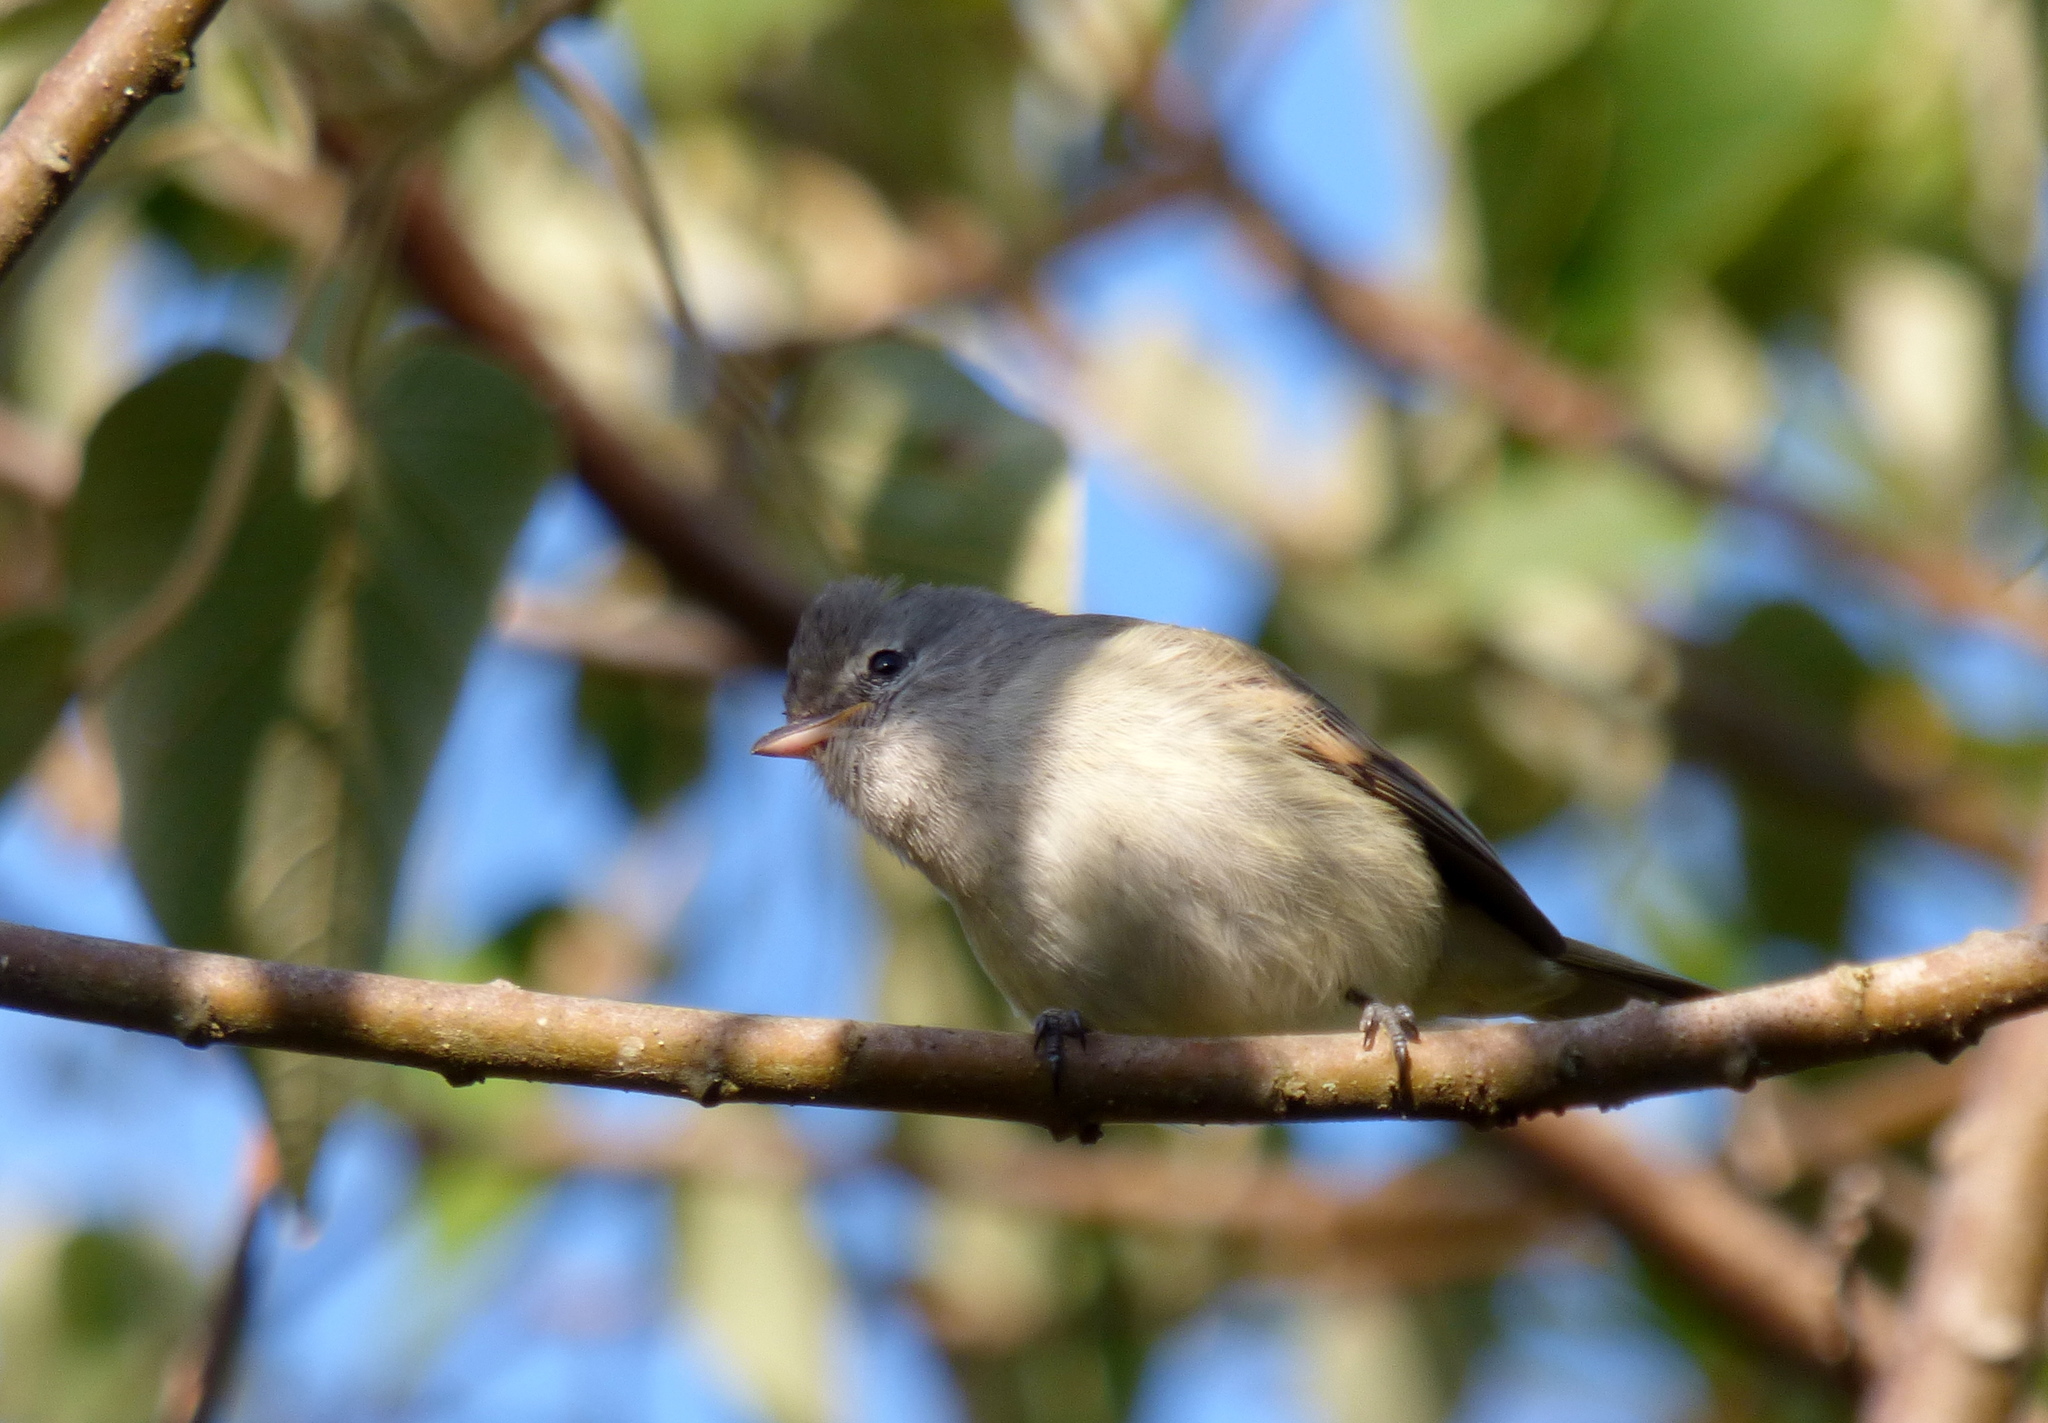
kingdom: Animalia
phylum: Chordata
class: Aves
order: Passeriformes
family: Tyrannidae
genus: Camptostoma
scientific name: Camptostoma obsoletum
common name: Southern beardless-tyrannulet
